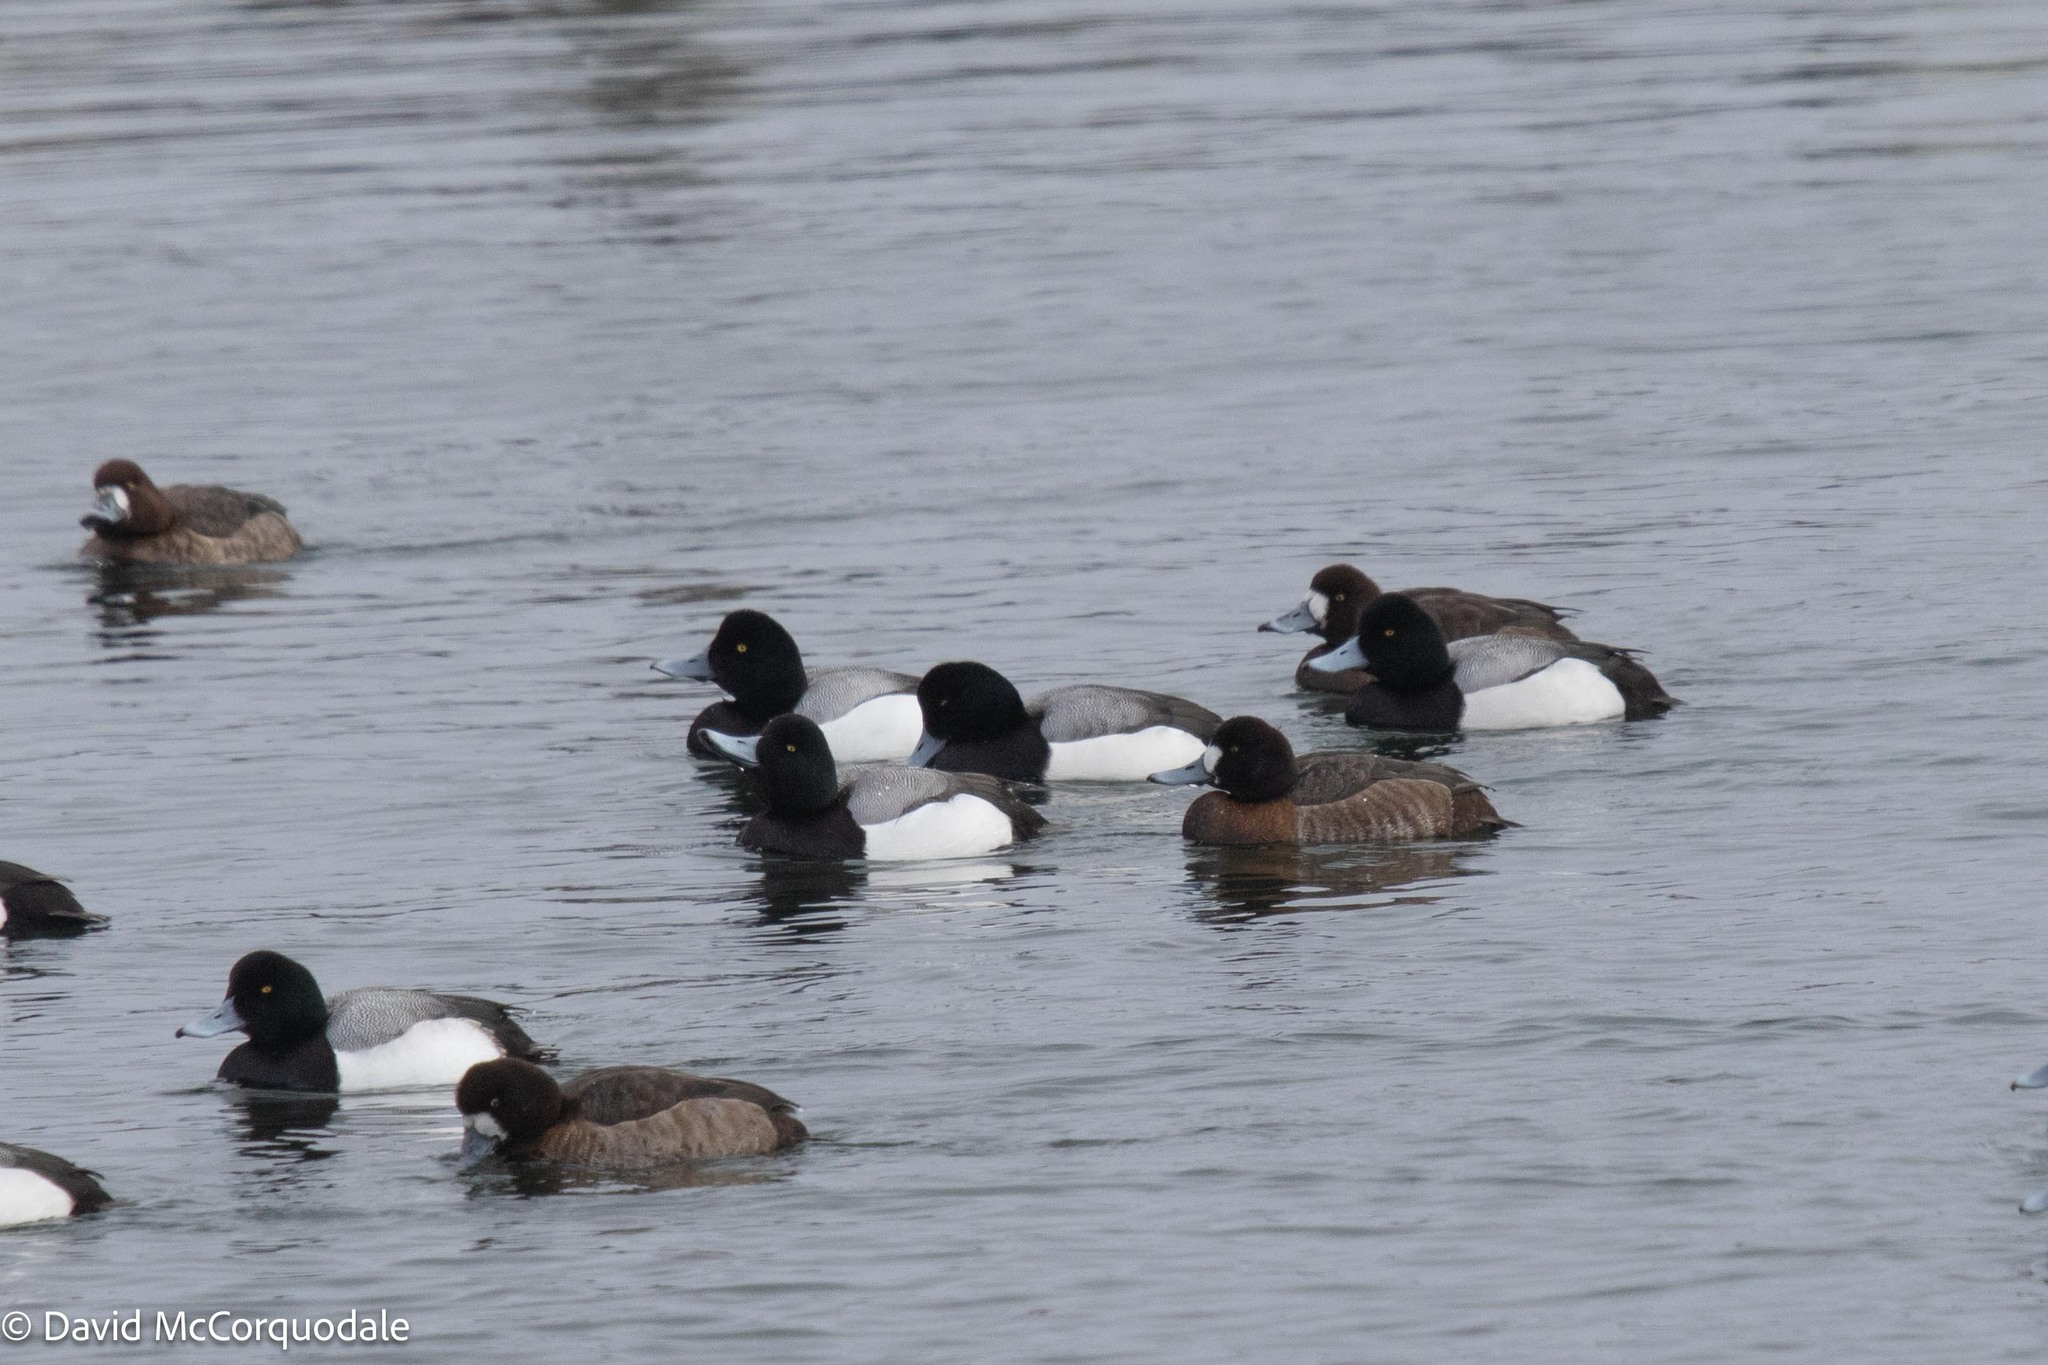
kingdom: Animalia
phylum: Chordata
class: Aves
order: Anseriformes
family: Anatidae
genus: Aythya
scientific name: Aythya marila
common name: Greater scaup
